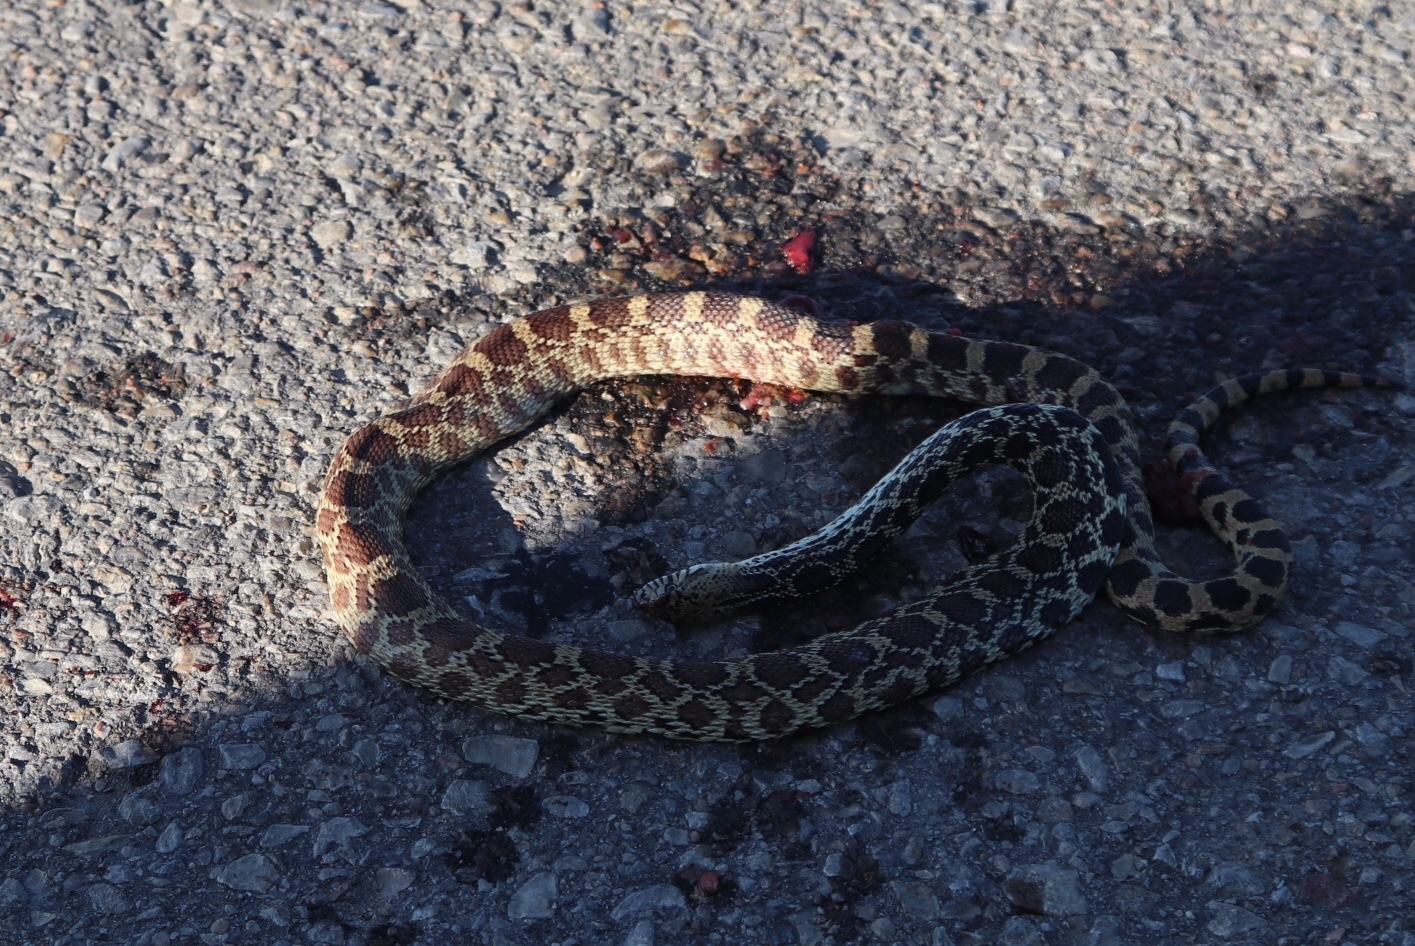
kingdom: Animalia
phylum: Chordata
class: Squamata
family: Colubridae
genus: Pituophis
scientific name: Pituophis catenifer
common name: Gopher snake
